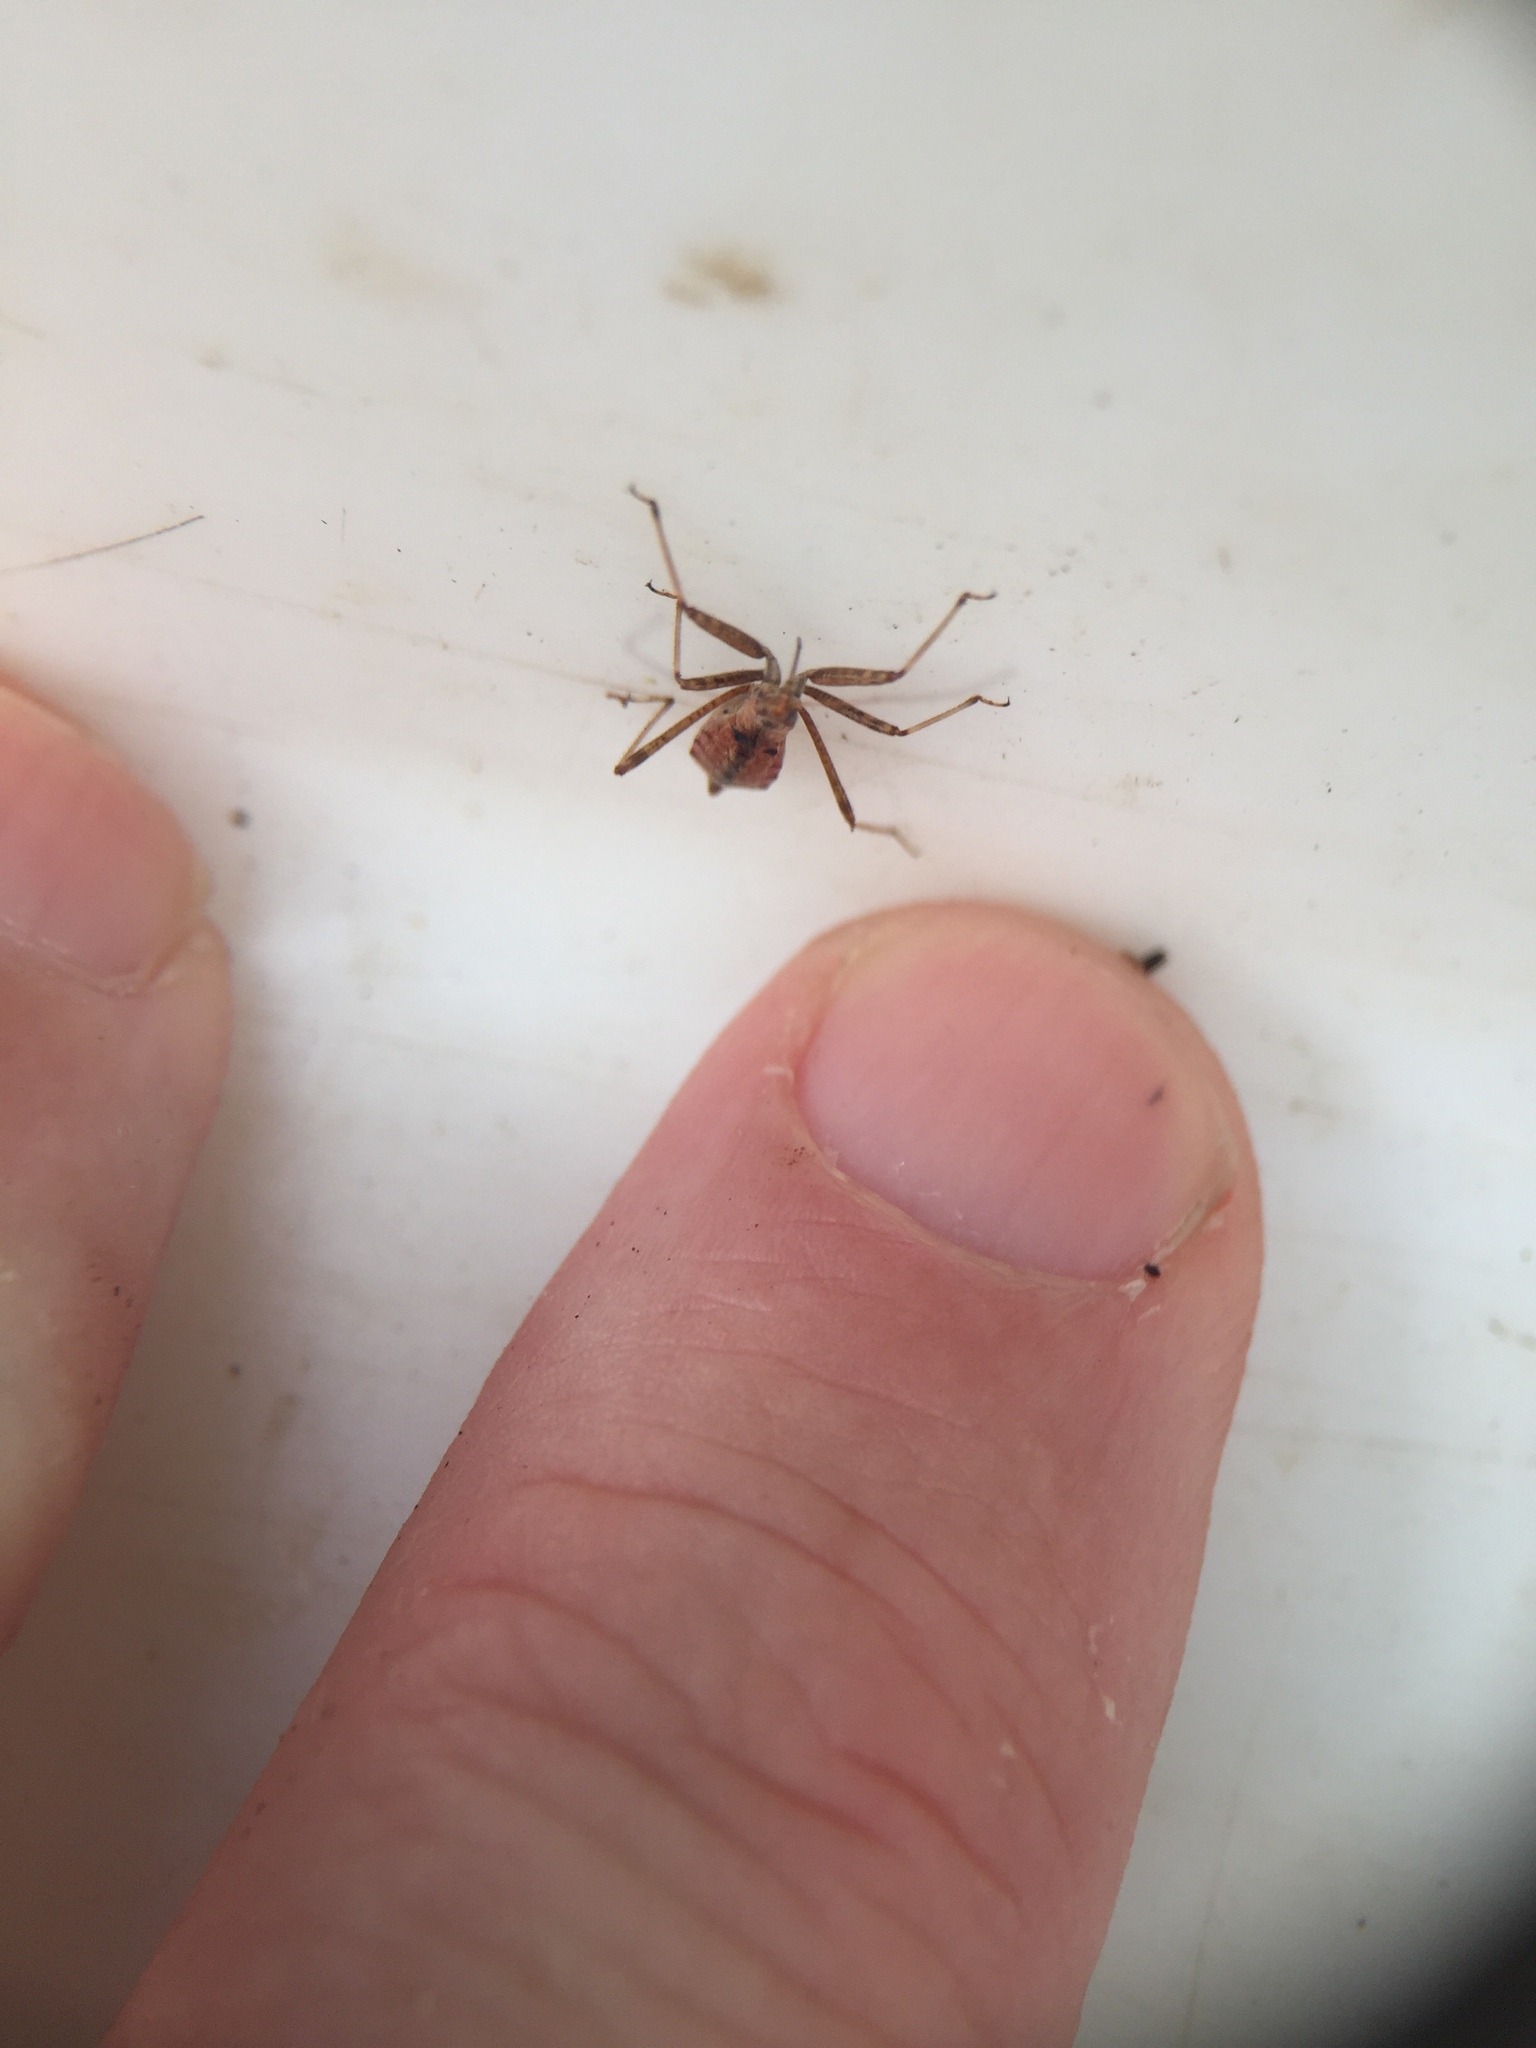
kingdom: Animalia
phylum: Arthropoda
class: Insecta
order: Hemiptera
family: Nabidae
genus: Nabis
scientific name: Nabis
